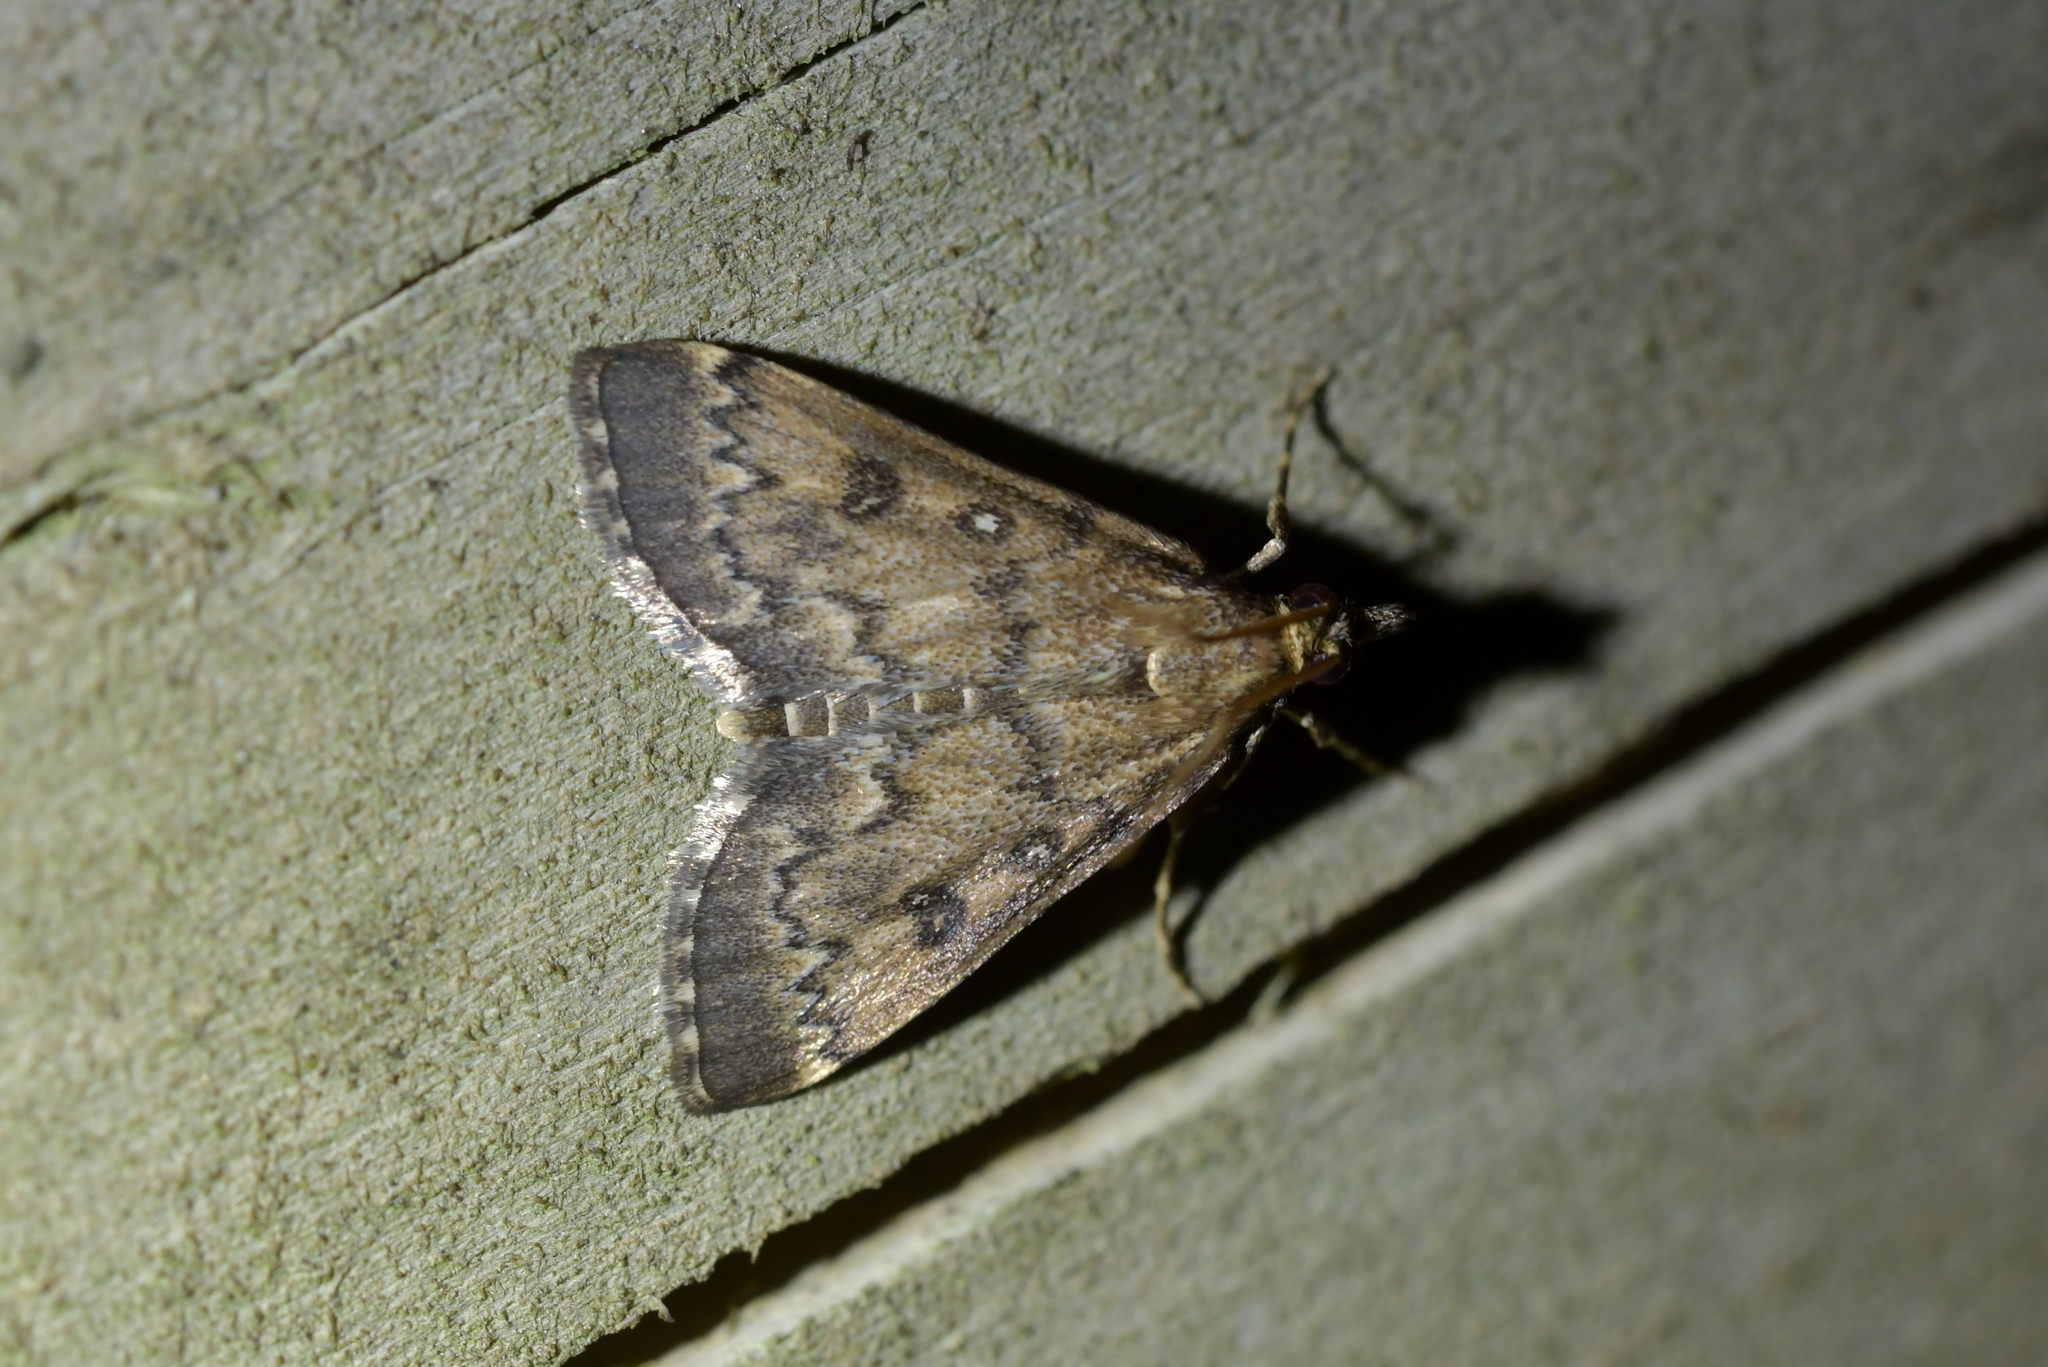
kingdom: Animalia
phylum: Arthropoda
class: Insecta
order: Lepidoptera
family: Crambidae
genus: Loxostege
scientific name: Loxostege Proternia philocapna
